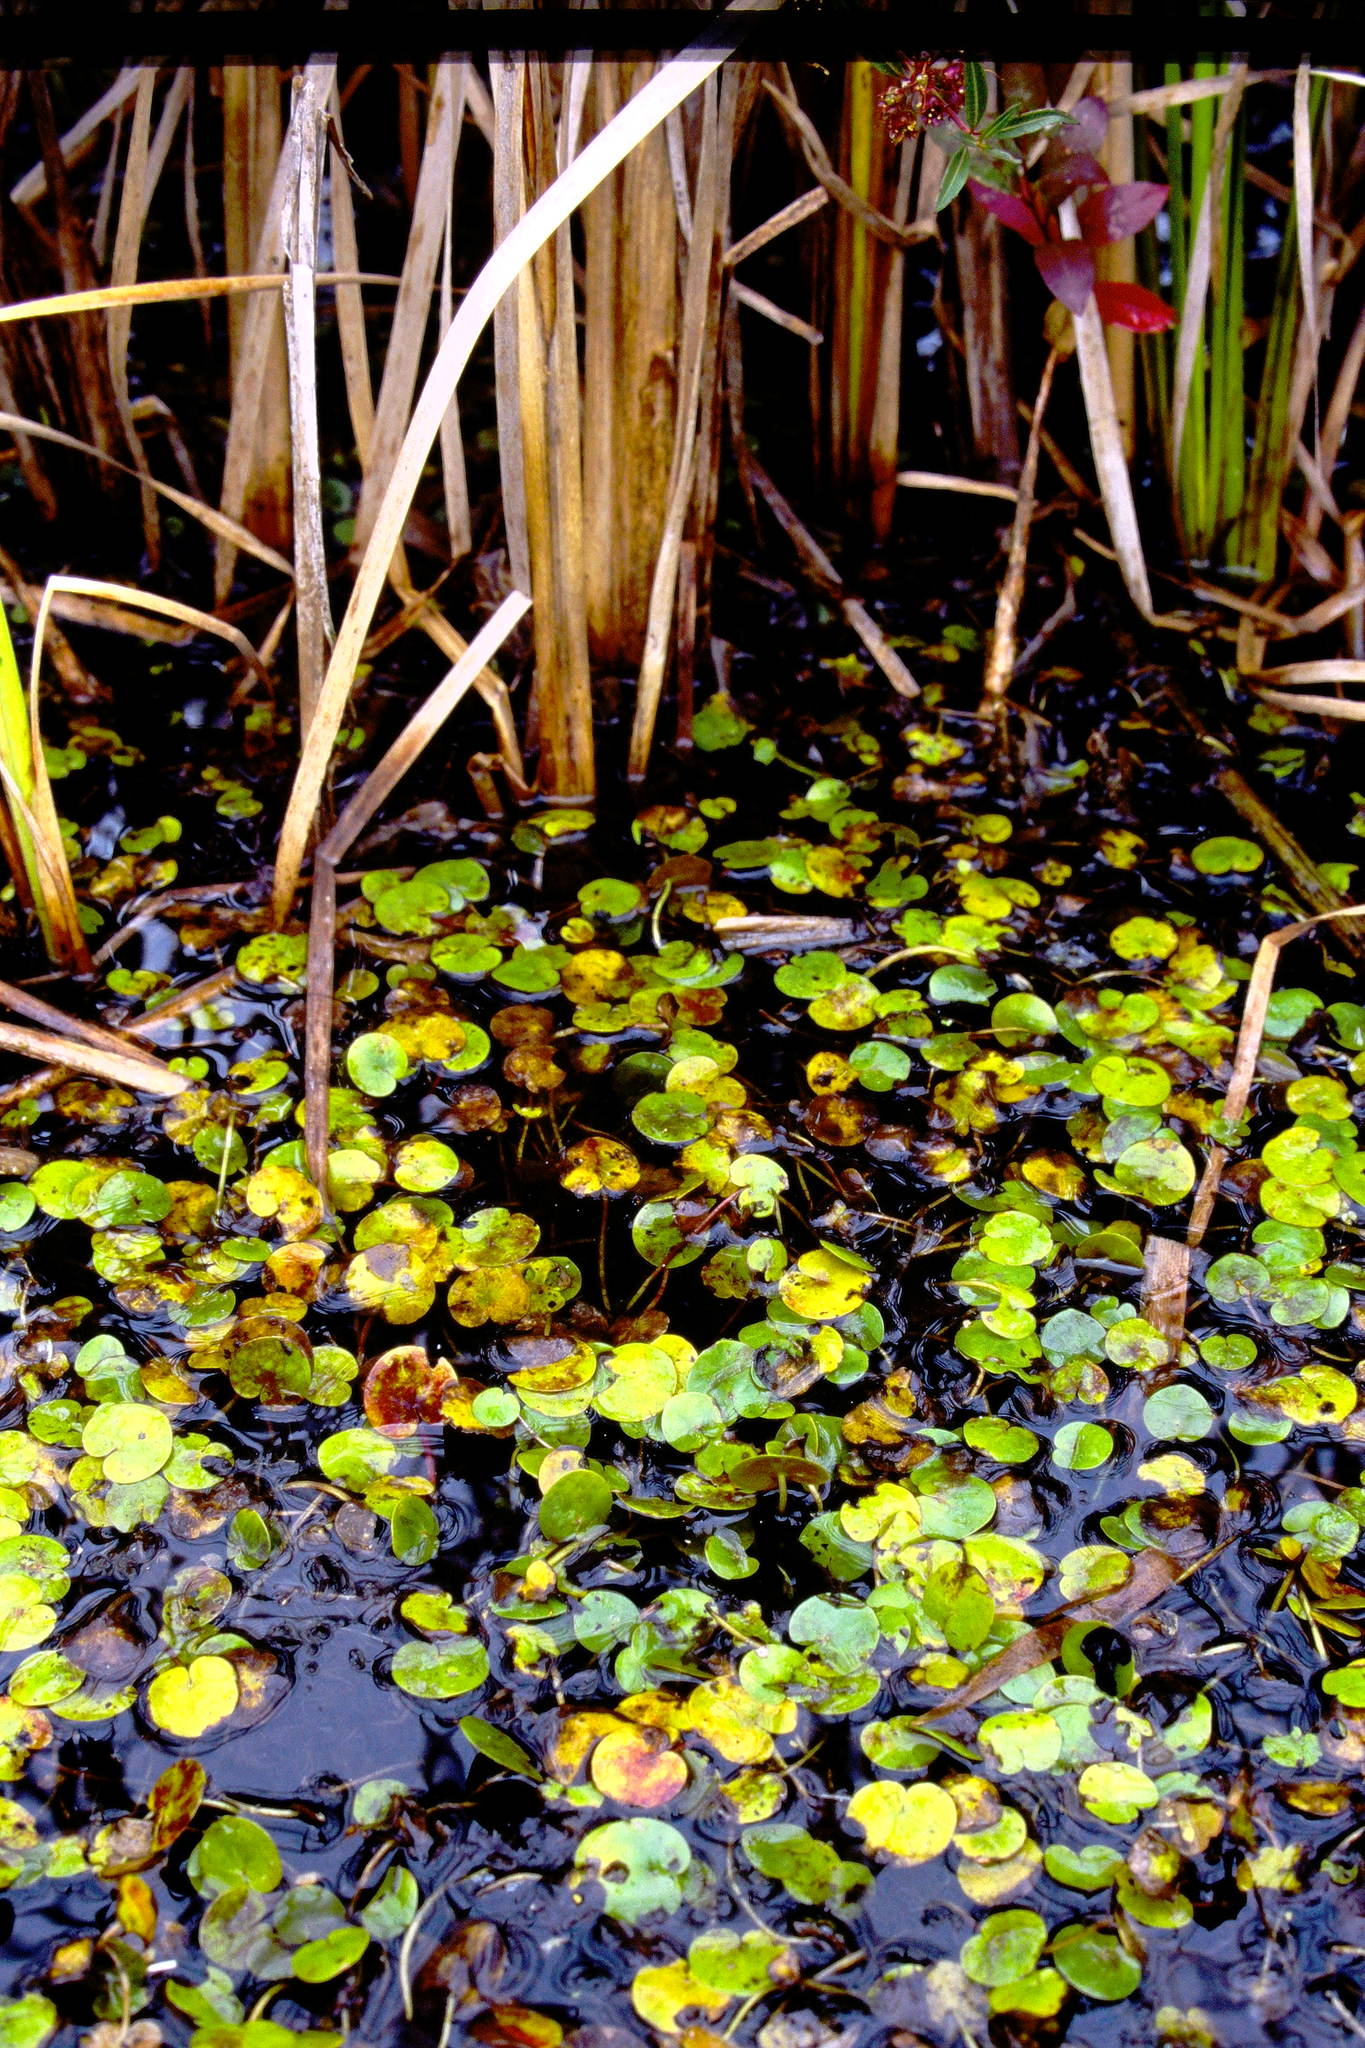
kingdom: Plantae
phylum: Tracheophyta
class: Liliopsida
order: Alismatales
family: Hydrocharitaceae
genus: Hydrocharis
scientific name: Hydrocharis morsus-ranae
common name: Frogbit
